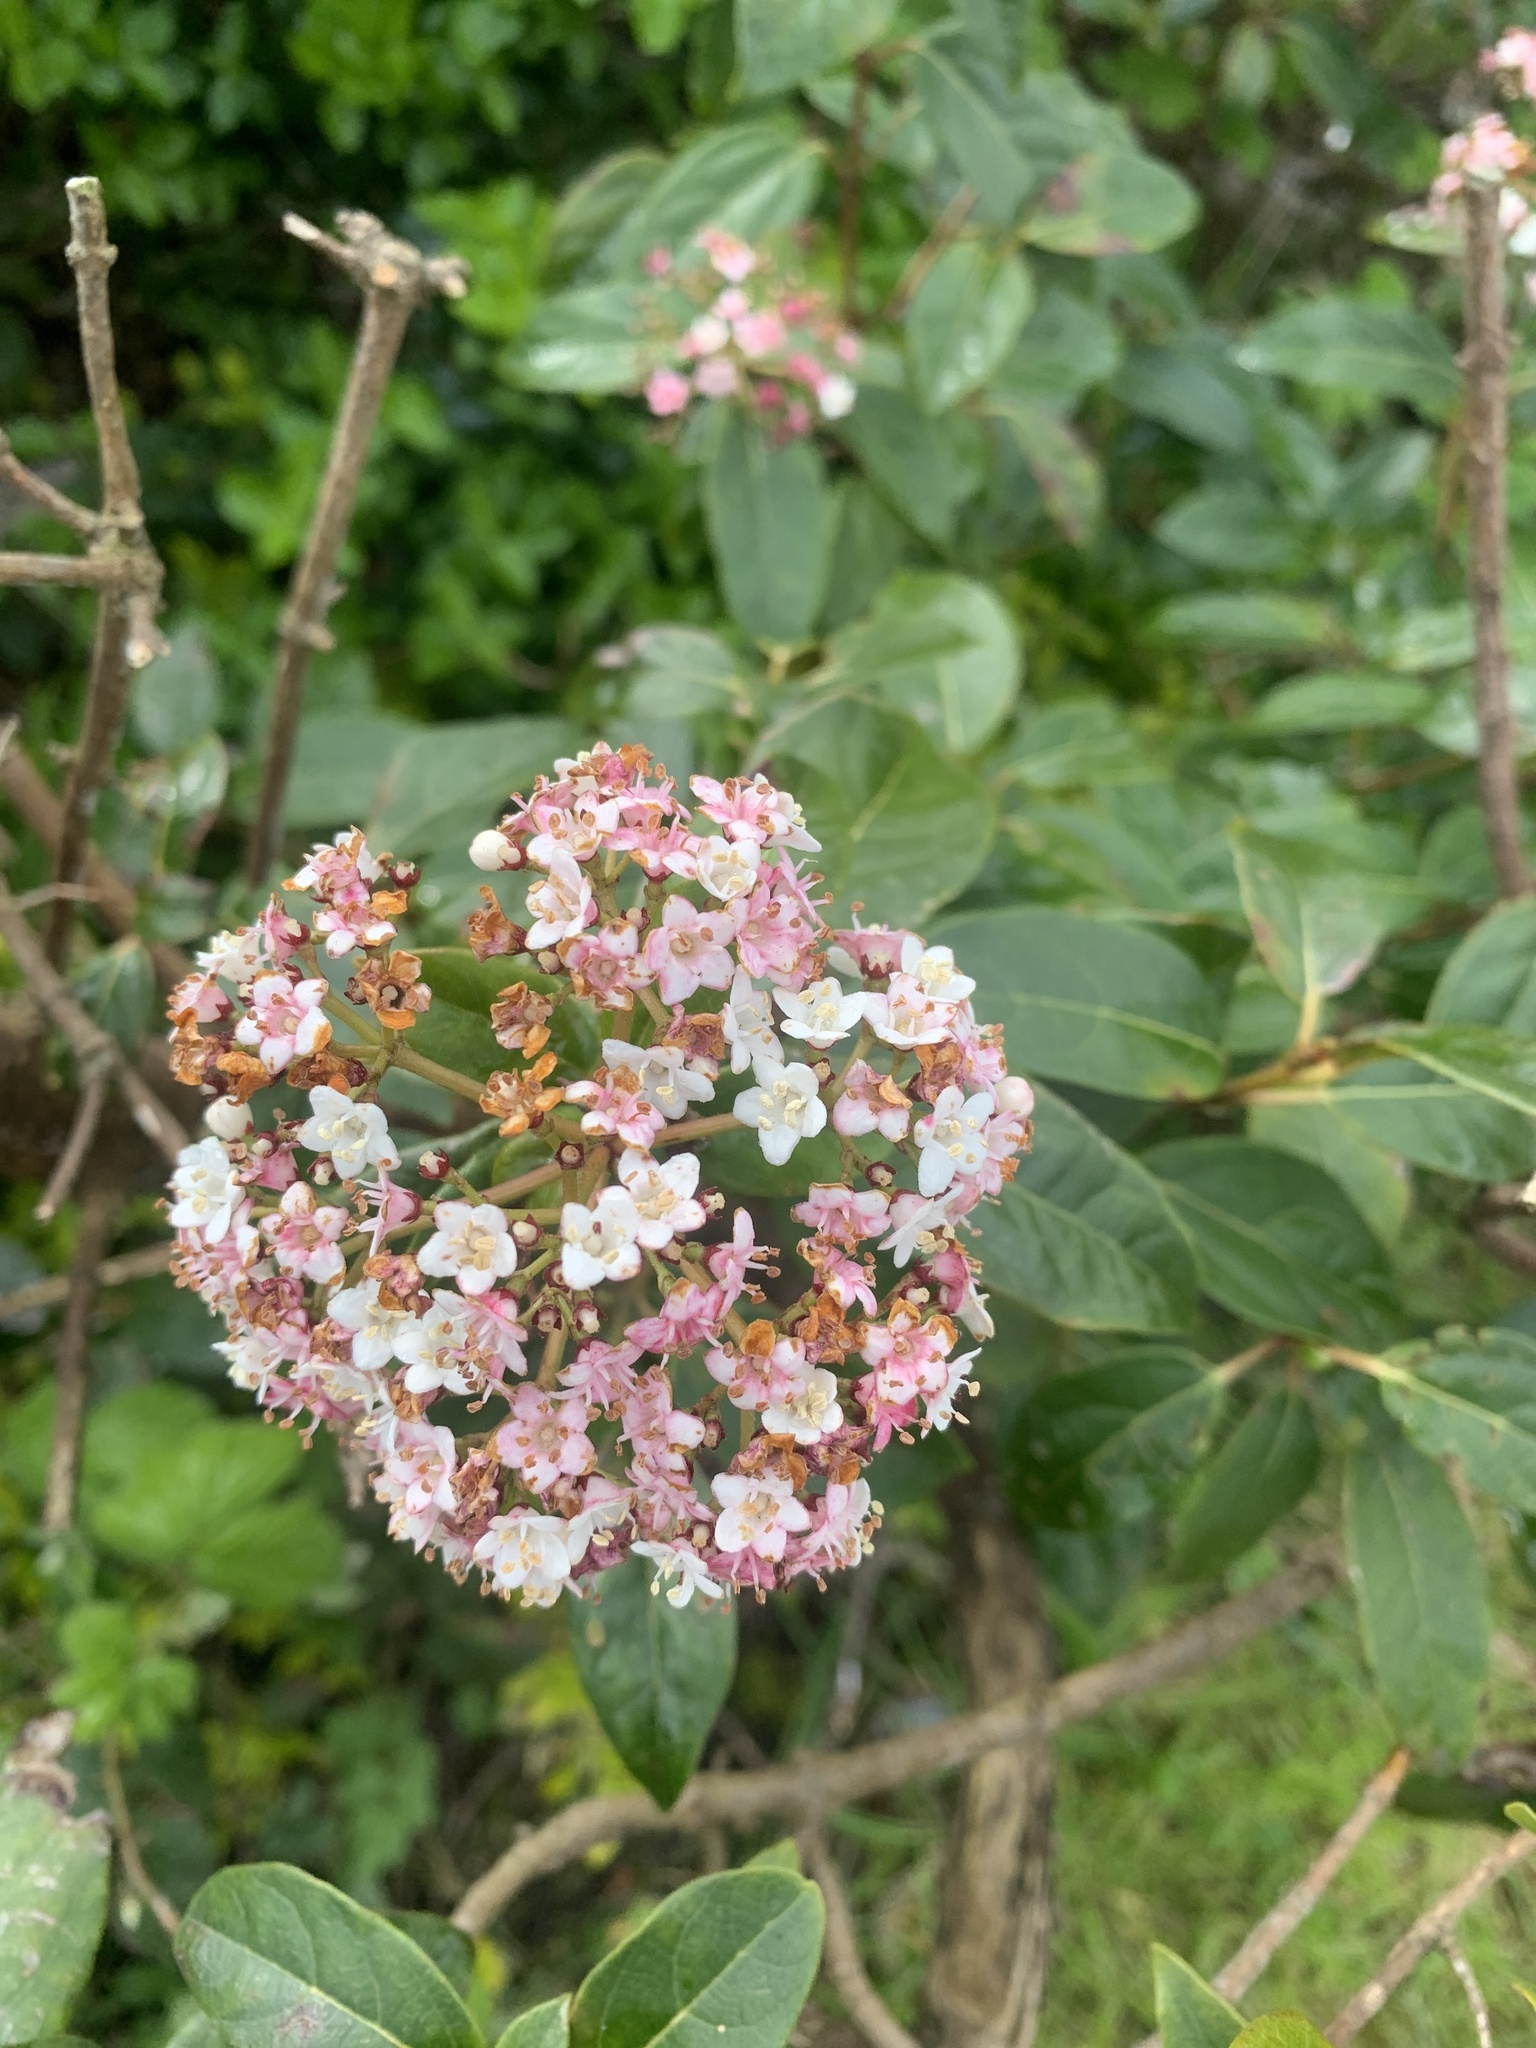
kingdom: Plantae
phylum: Tracheophyta
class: Magnoliopsida
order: Dipsacales
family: Viburnaceae
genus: Viburnum
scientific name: Viburnum tinus
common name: Laurustinus
